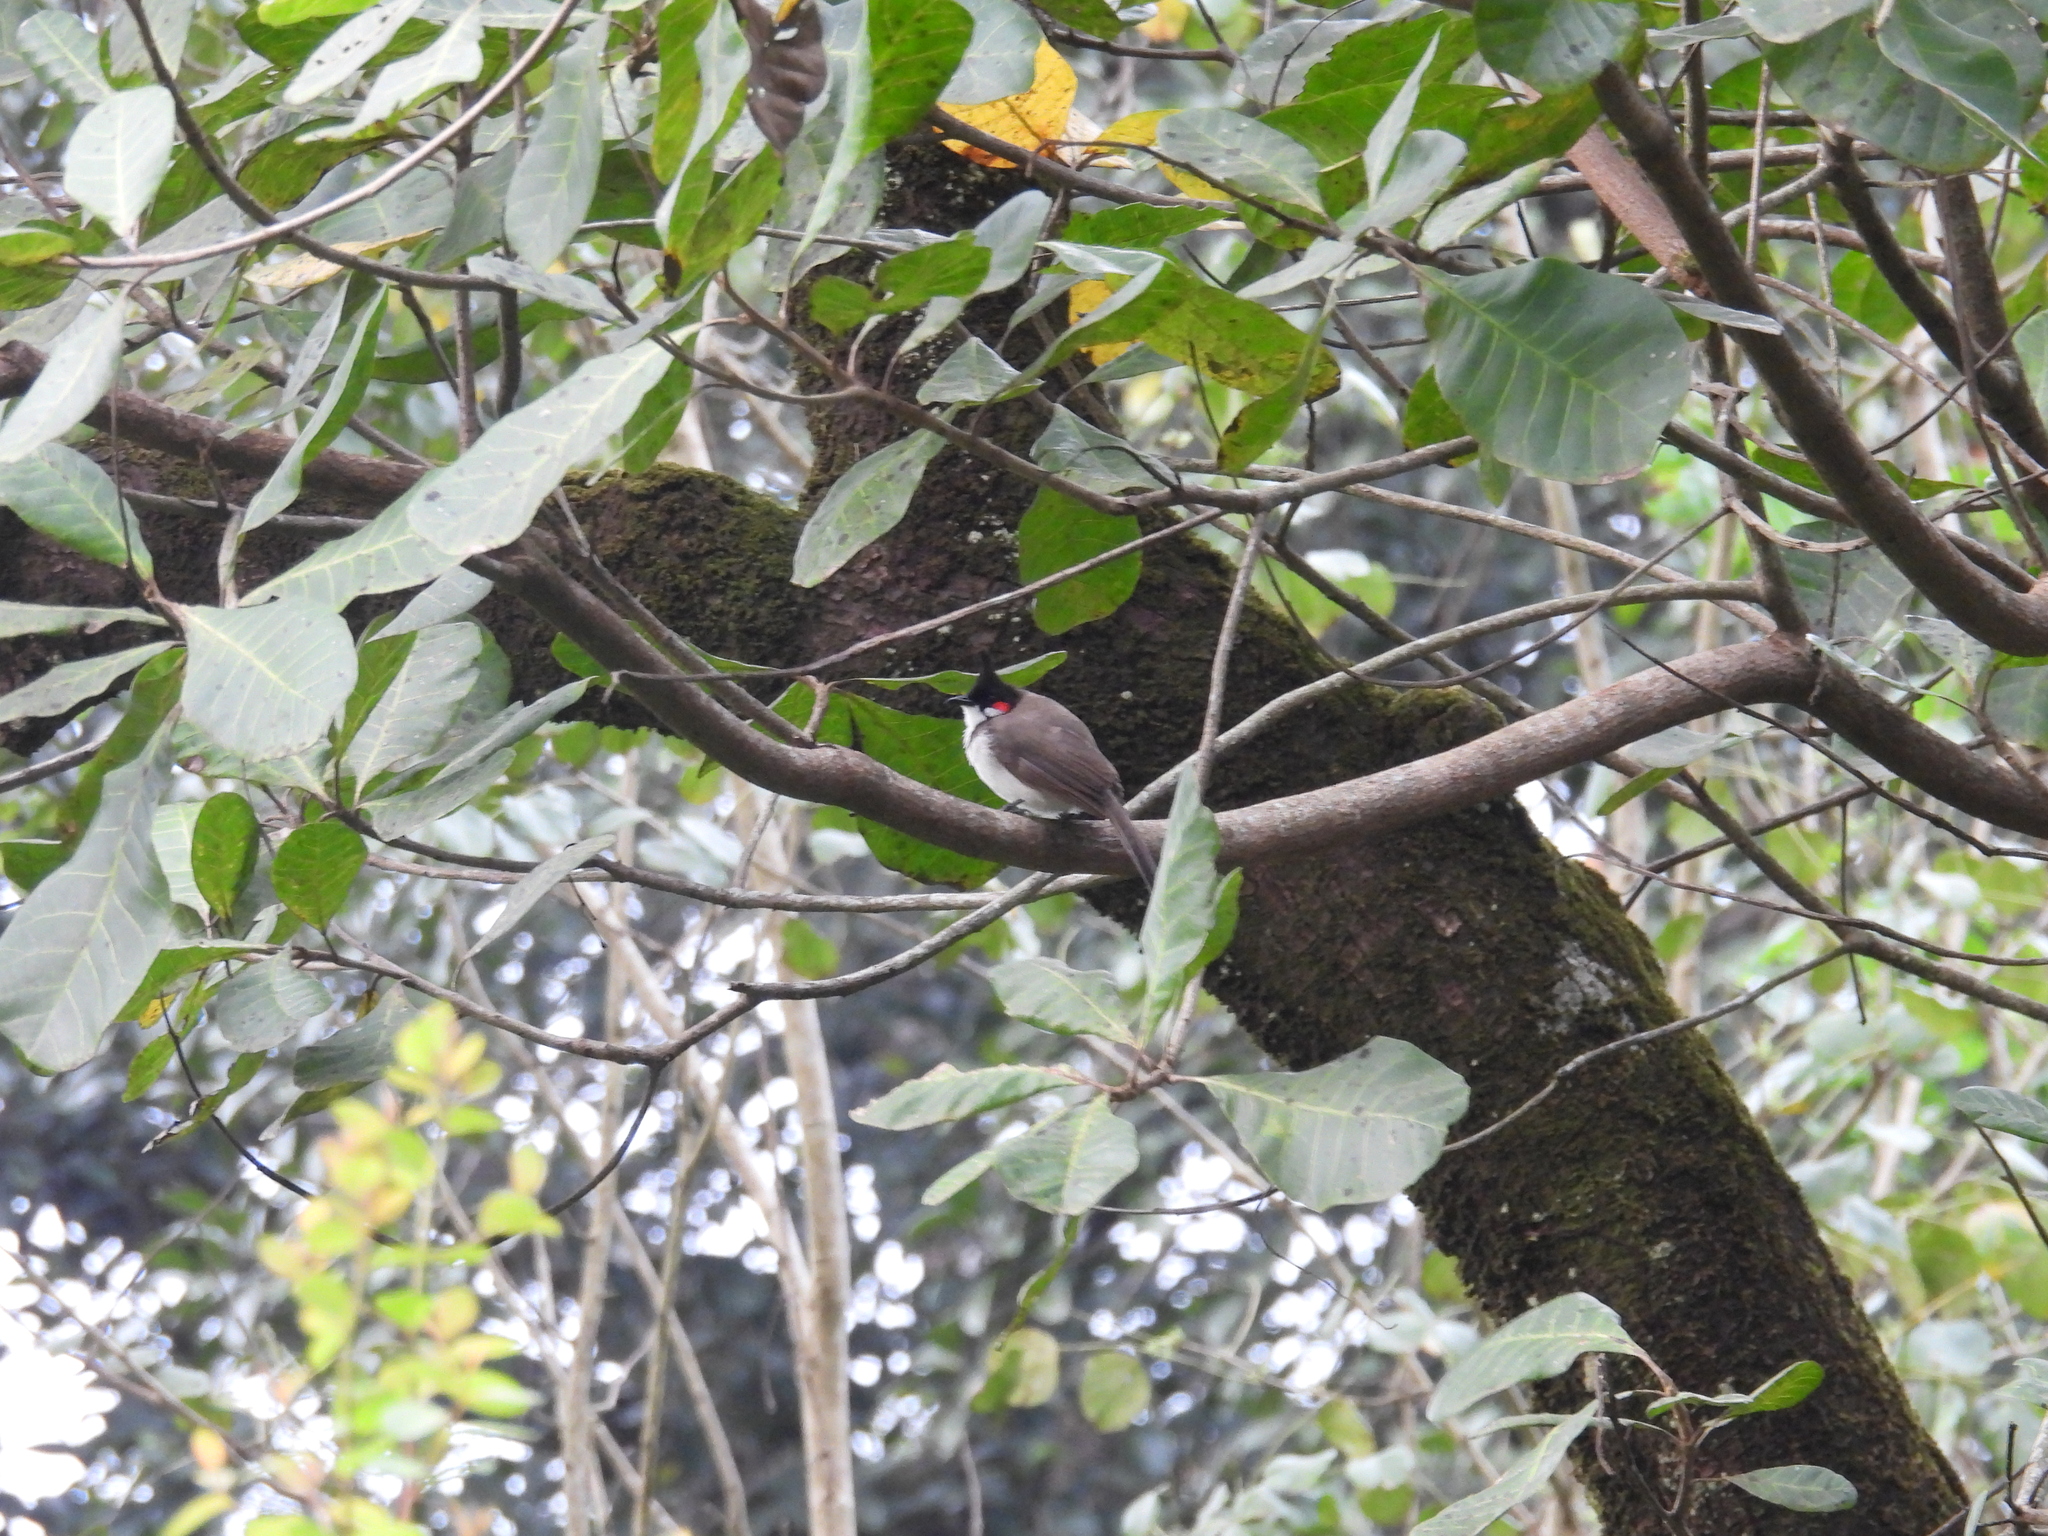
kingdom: Animalia
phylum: Chordata
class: Aves
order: Passeriformes
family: Pycnonotidae
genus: Pycnonotus
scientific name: Pycnonotus jocosus
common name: Red-whiskered bulbul
